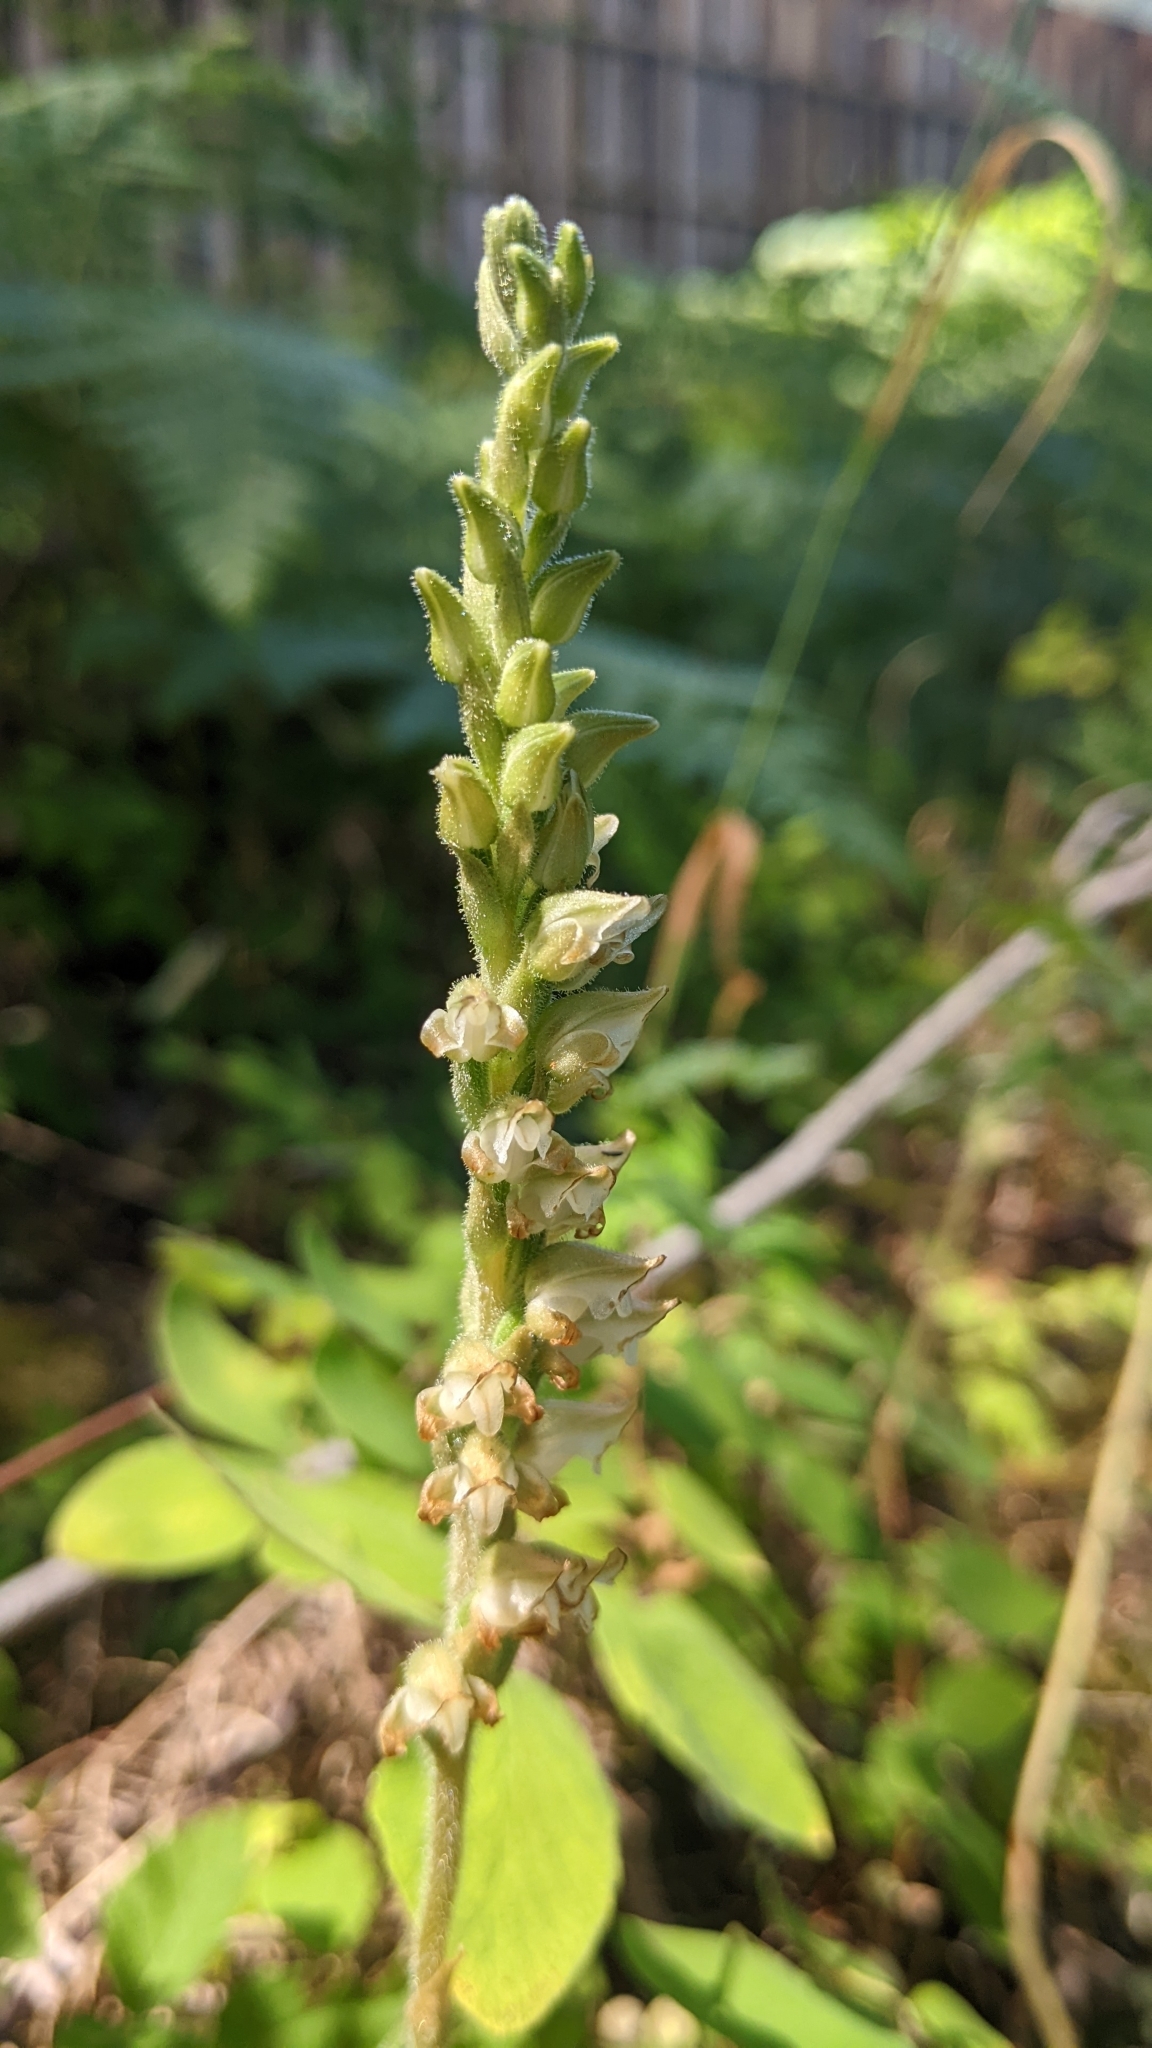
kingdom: Plantae
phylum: Tracheophyta
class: Liliopsida
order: Asparagales
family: Orchidaceae
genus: Goodyera
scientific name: Goodyera oblongifolia
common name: Giant rattlesnake-plantain
